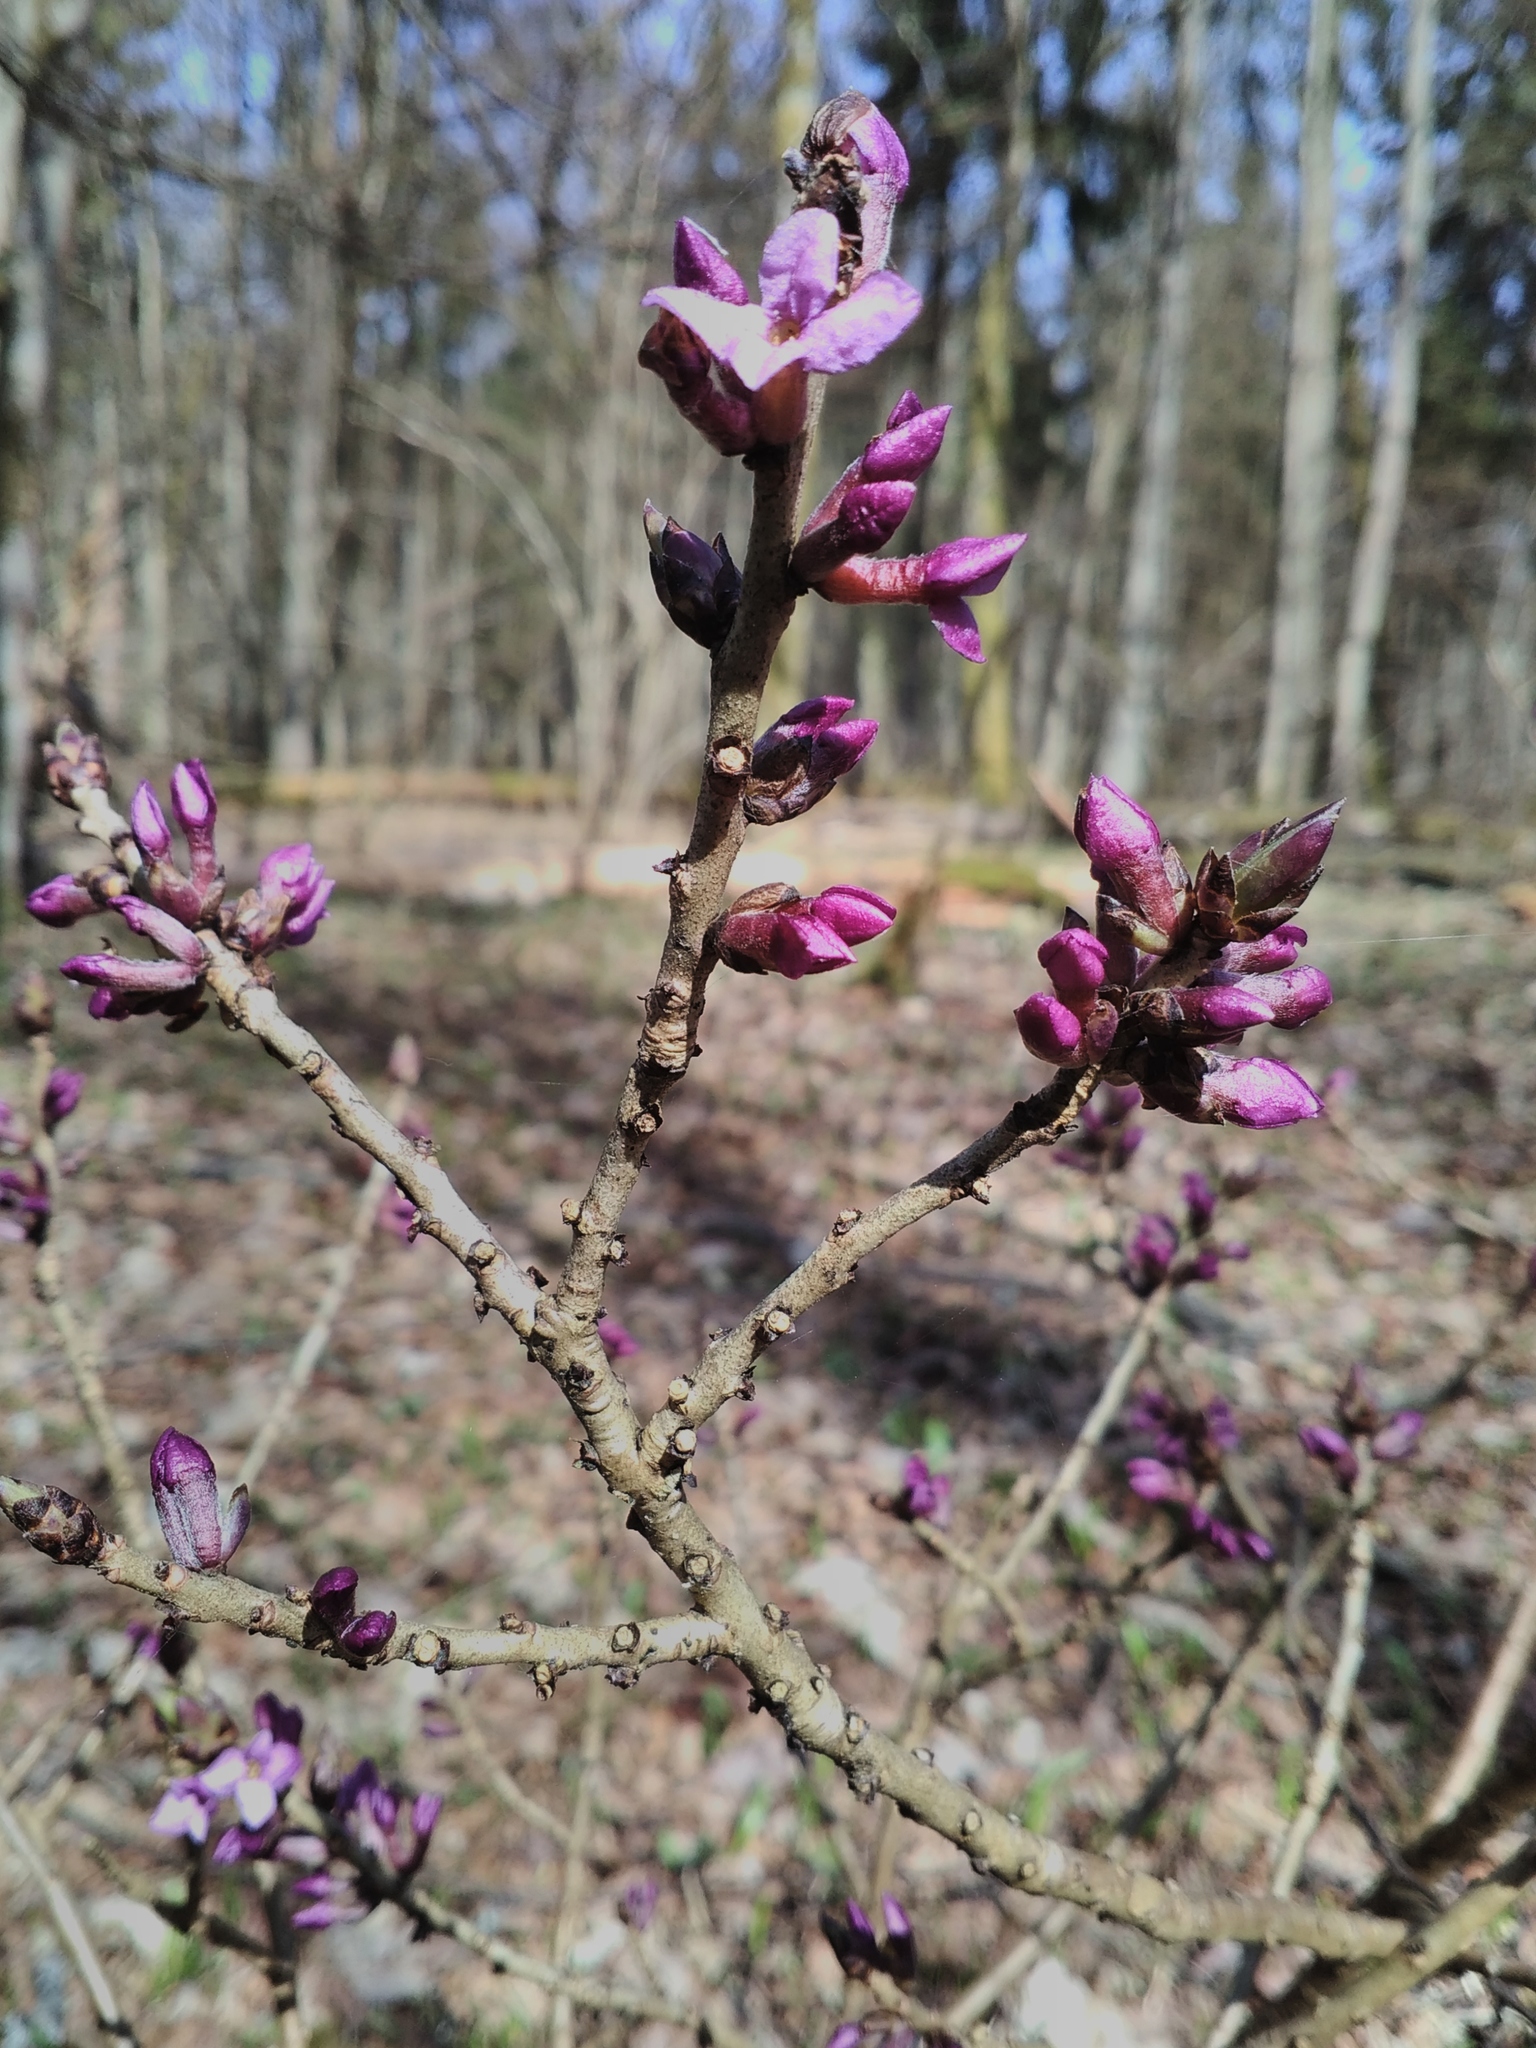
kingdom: Plantae
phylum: Tracheophyta
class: Magnoliopsida
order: Malvales
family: Thymelaeaceae
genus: Daphne
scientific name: Daphne mezereum
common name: Mezereon
